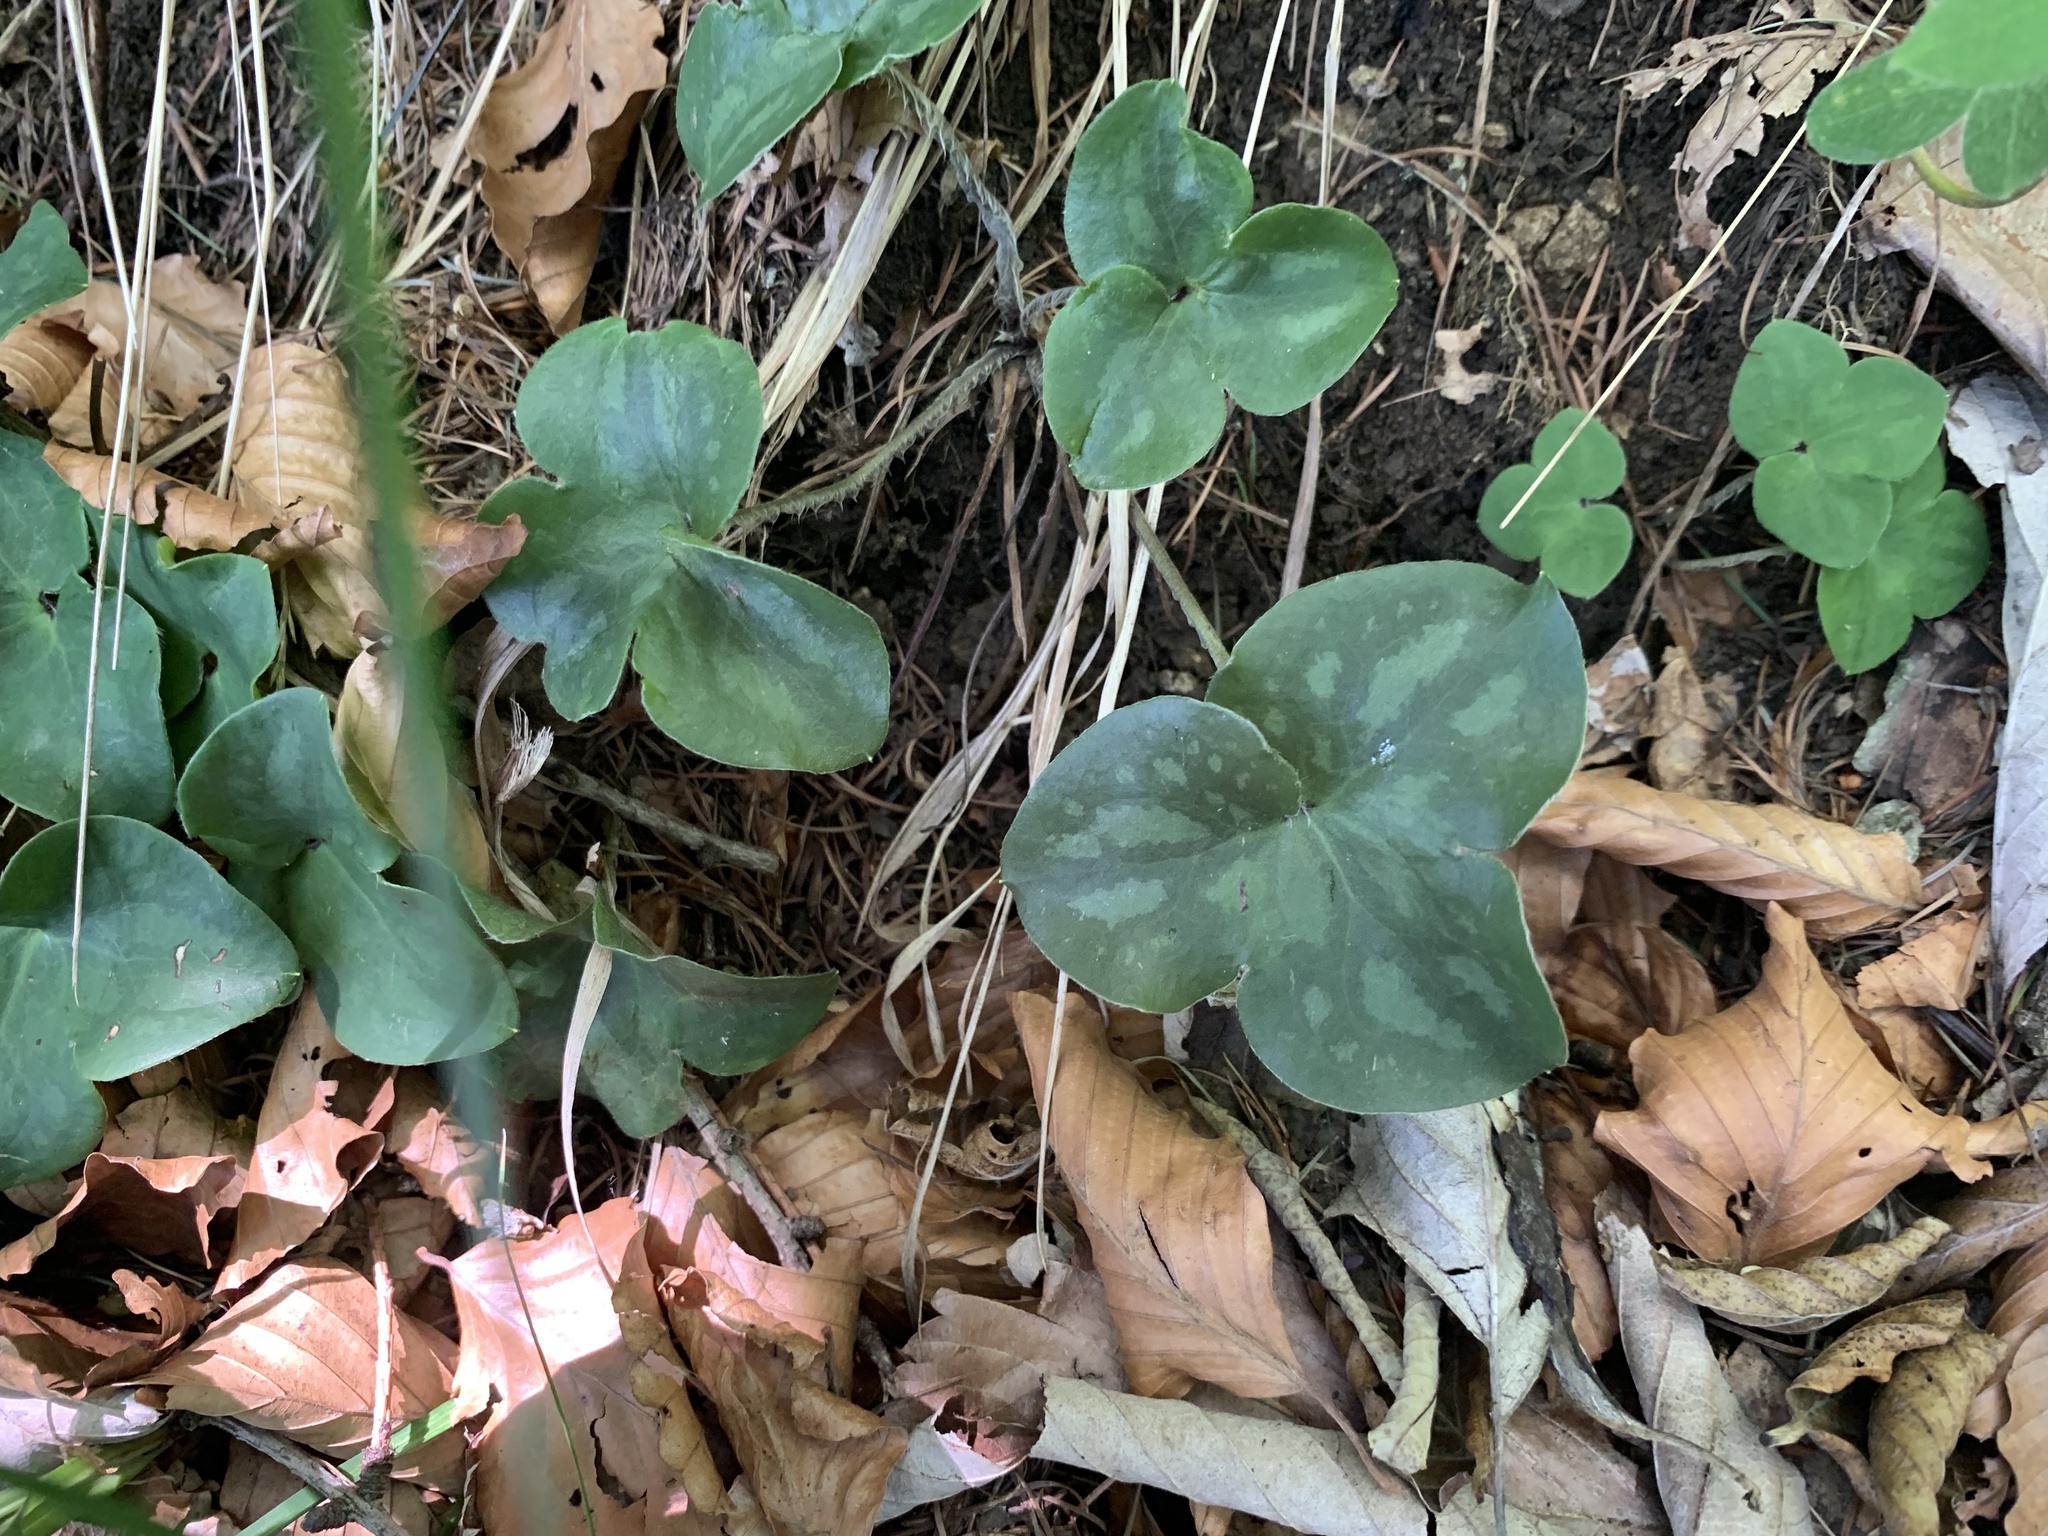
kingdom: Plantae
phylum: Tracheophyta
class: Magnoliopsida
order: Ranunculales
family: Ranunculaceae
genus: Hepatica
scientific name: Hepatica nobilis
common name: Liverleaf
